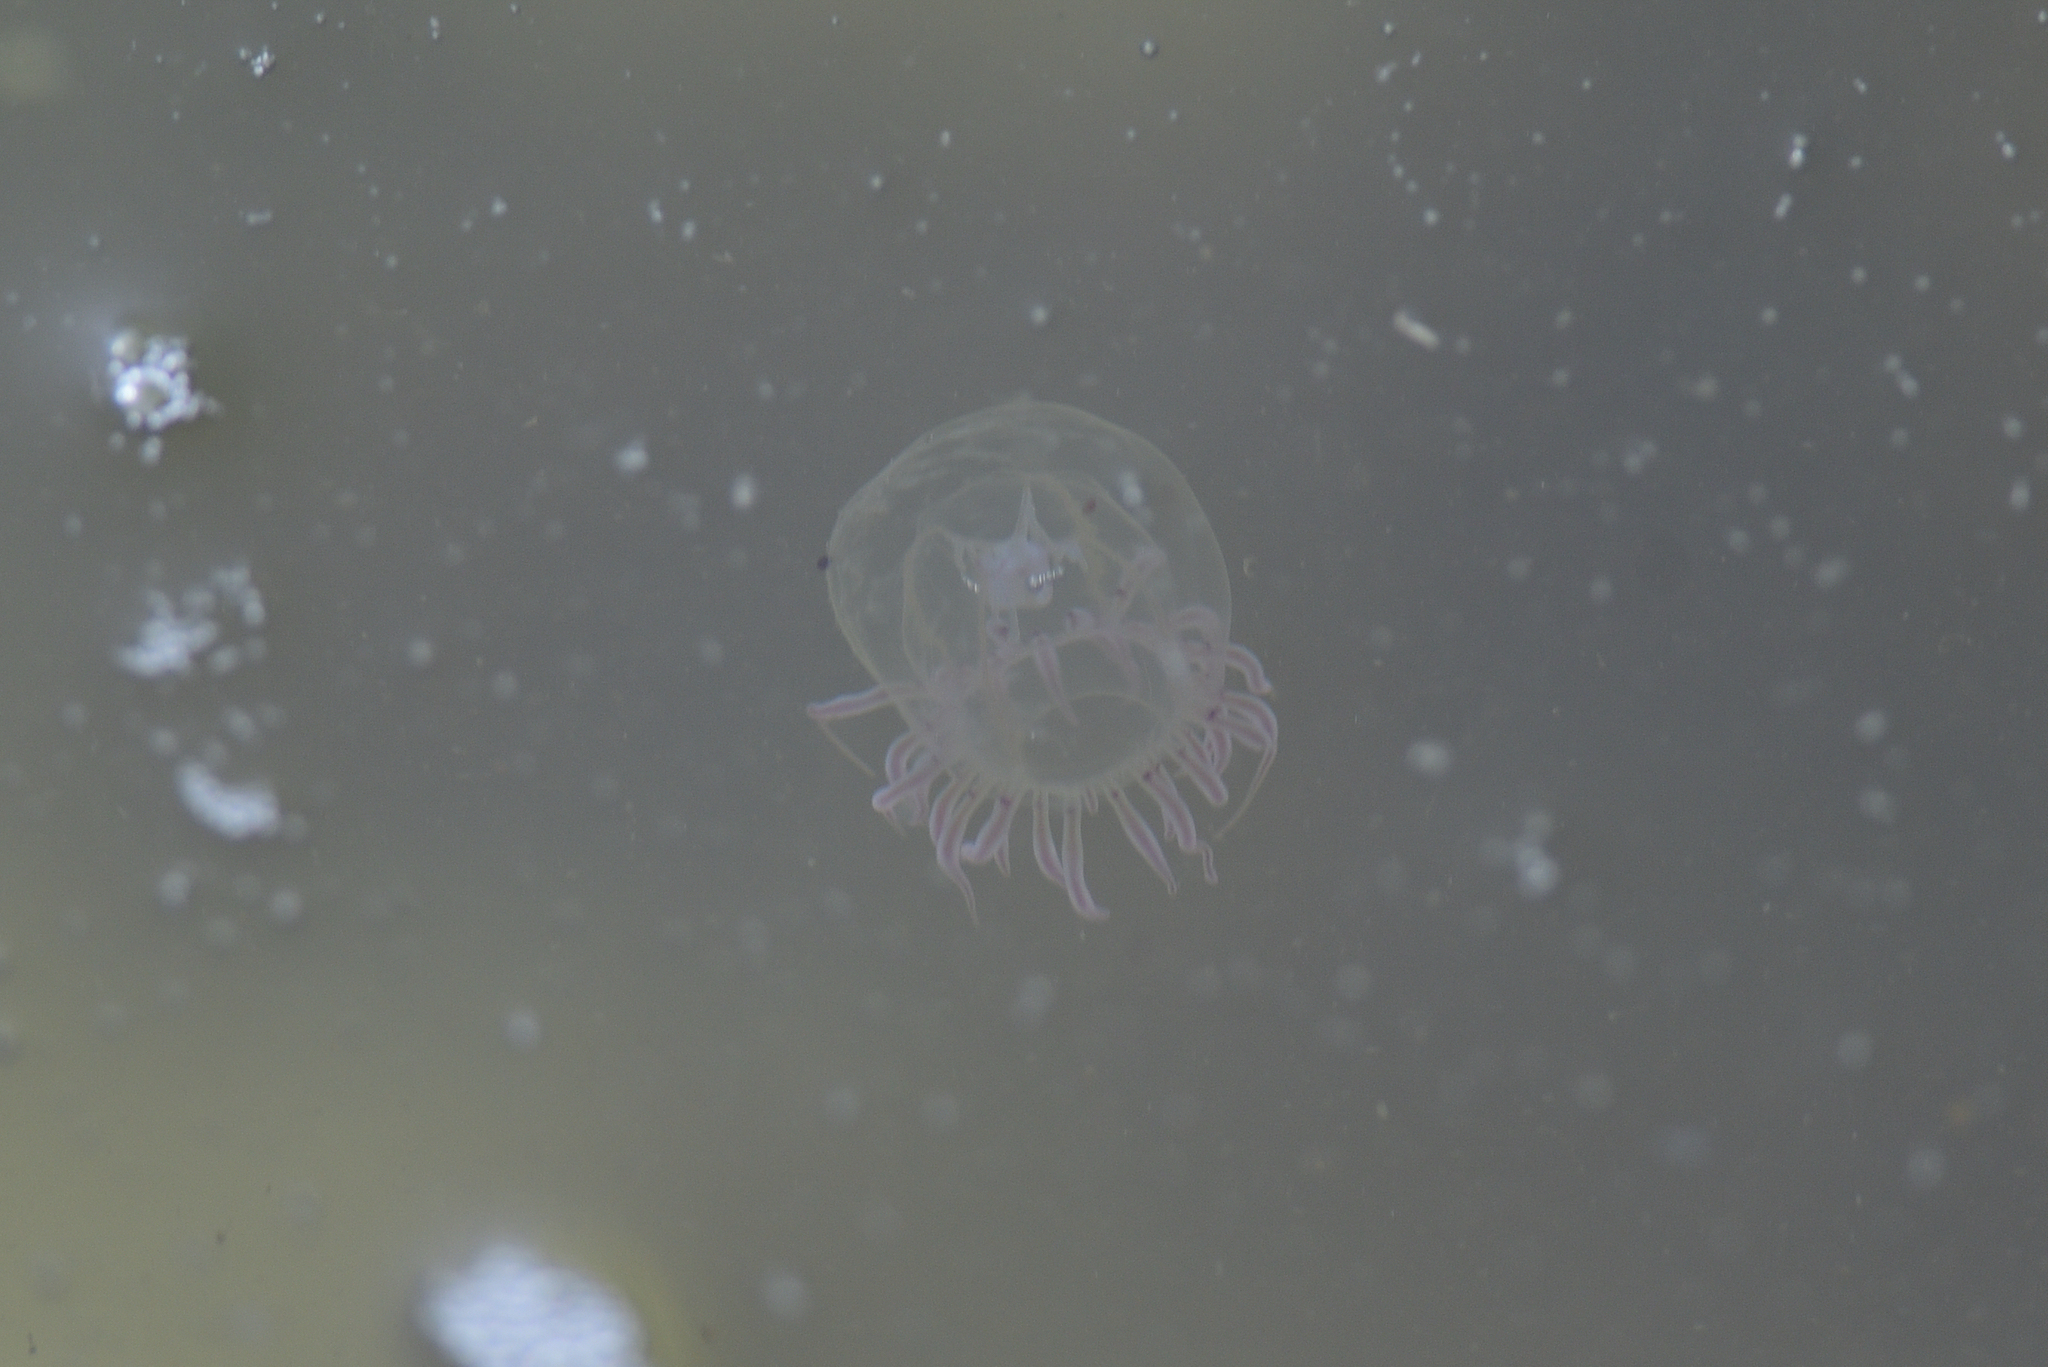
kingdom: Animalia
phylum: Cnidaria
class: Hydrozoa
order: Anthoathecata
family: Corynidae
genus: Polyorchis
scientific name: Polyorchis penicillatus
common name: Penicillate jellyfish
